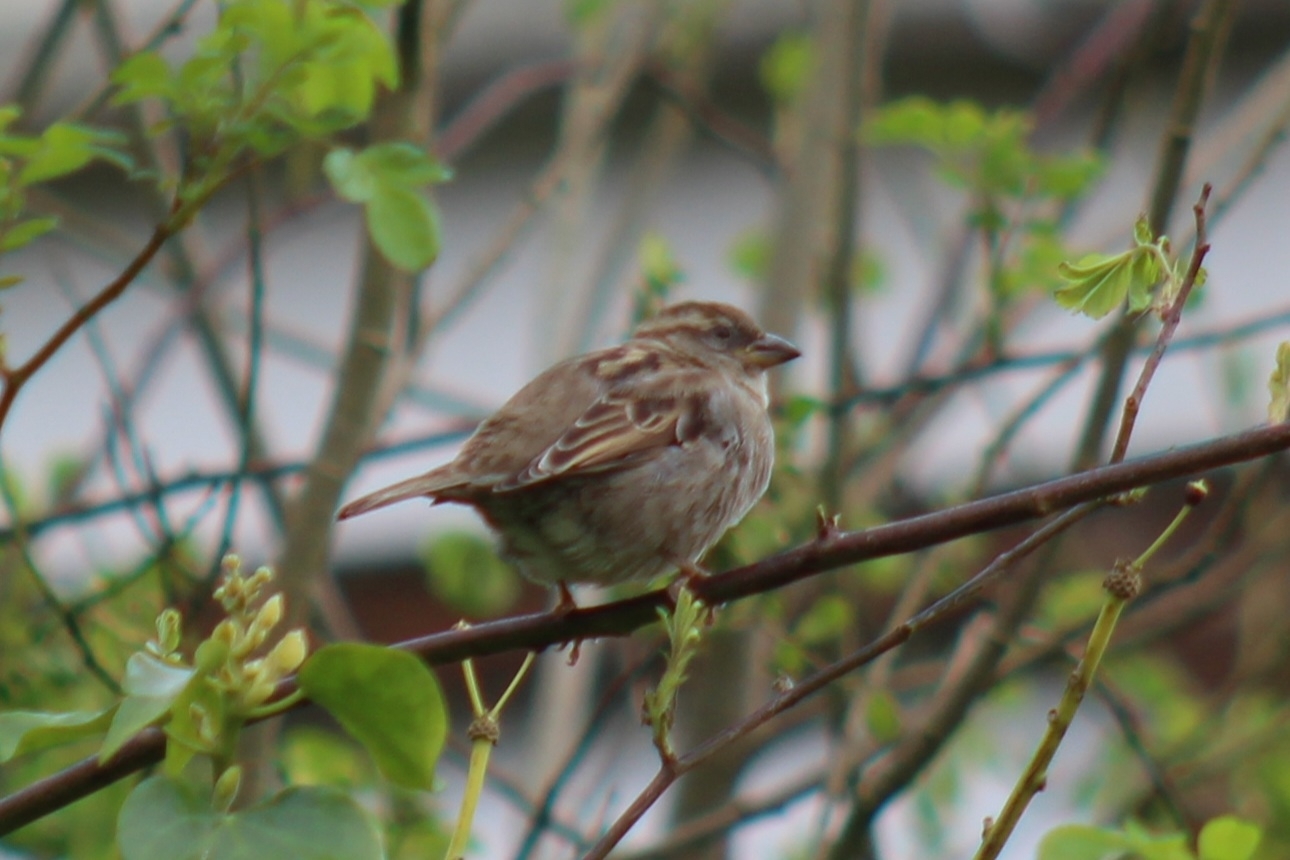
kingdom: Animalia
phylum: Chordata
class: Aves
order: Passeriformes
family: Passeridae
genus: Passer
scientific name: Passer domesticus
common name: House sparrow
